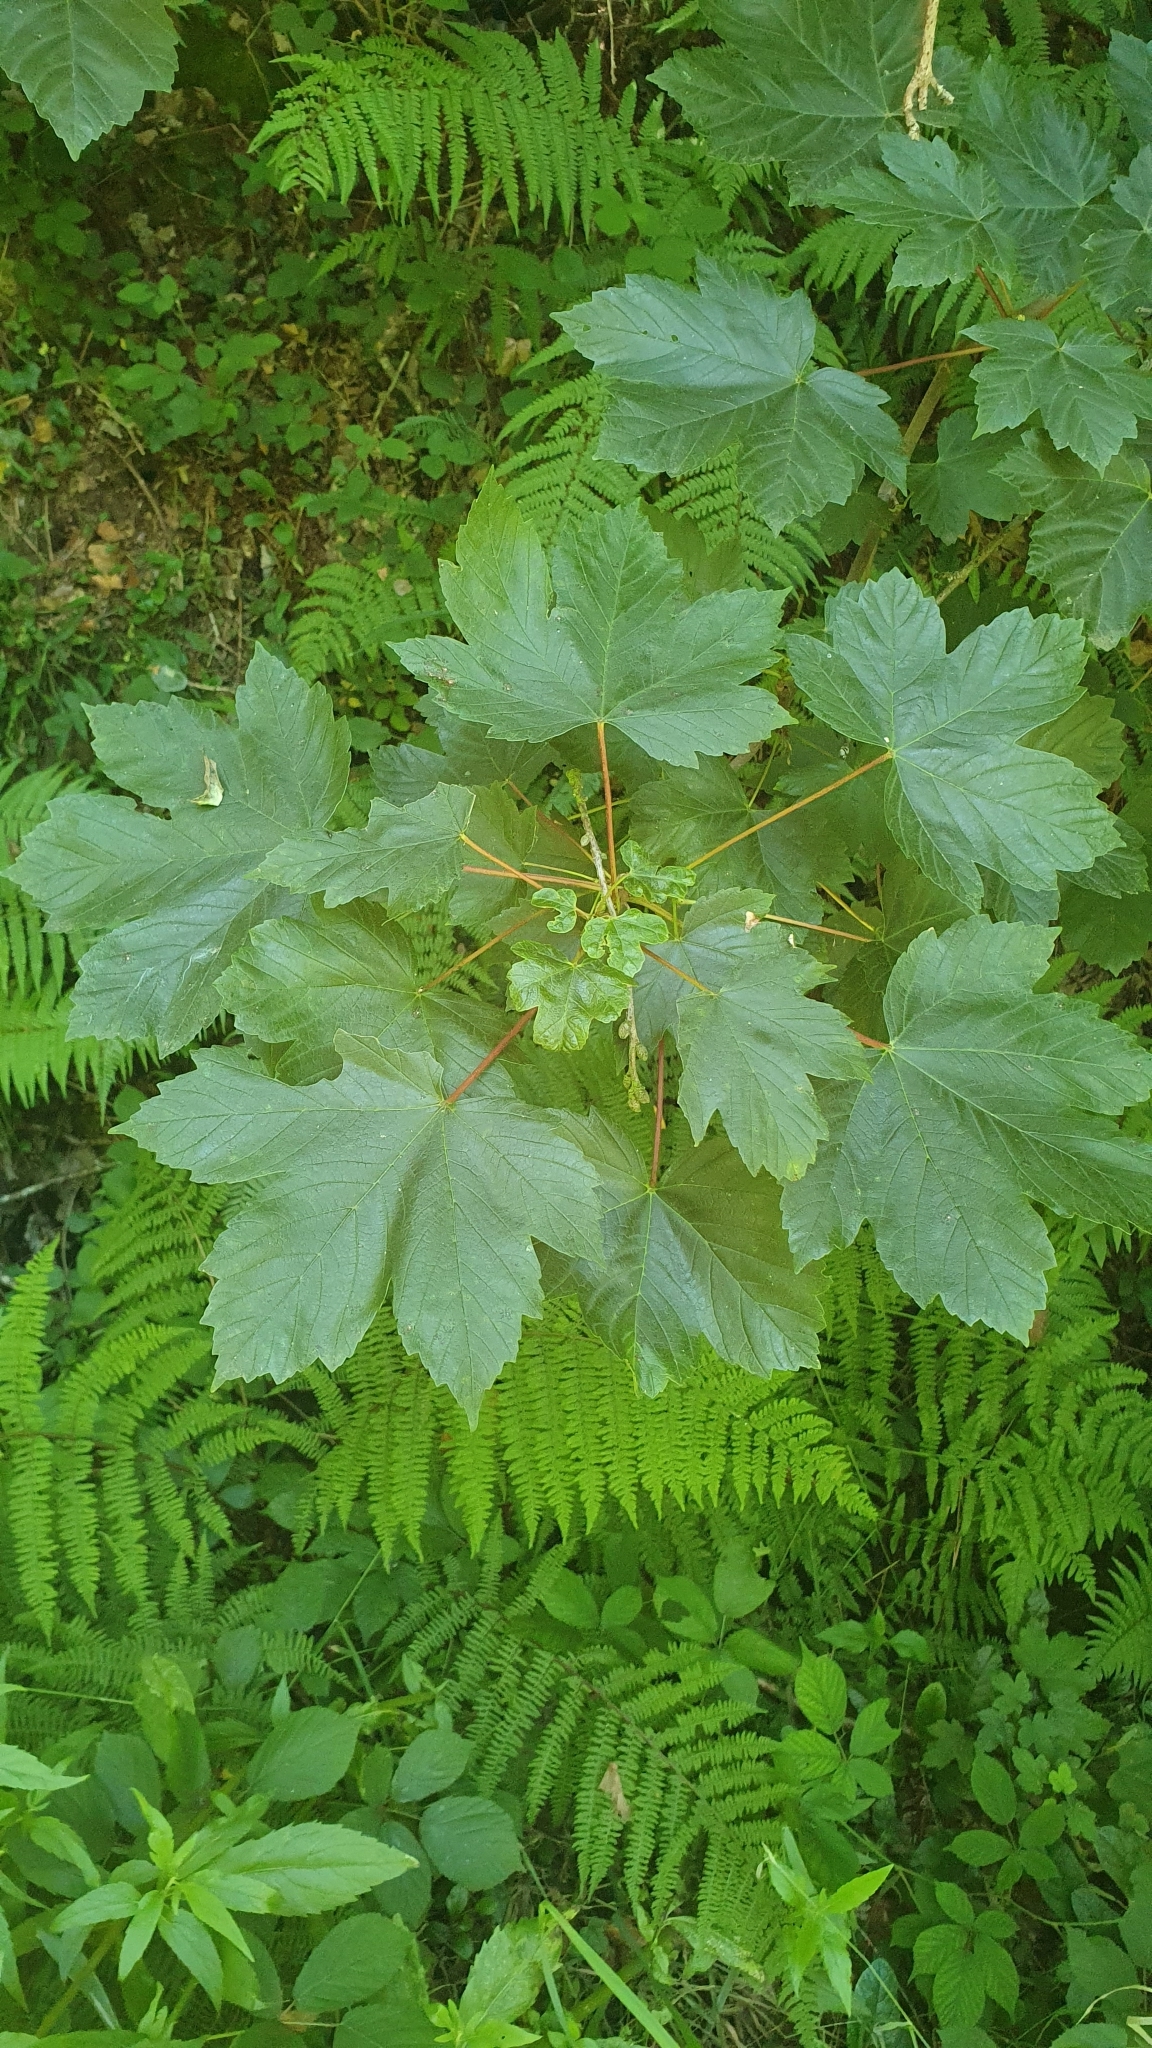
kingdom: Plantae
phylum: Tracheophyta
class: Magnoliopsida
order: Sapindales
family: Sapindaceae
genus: Acer
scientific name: Acer pseudoplatanus
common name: Sycamore
